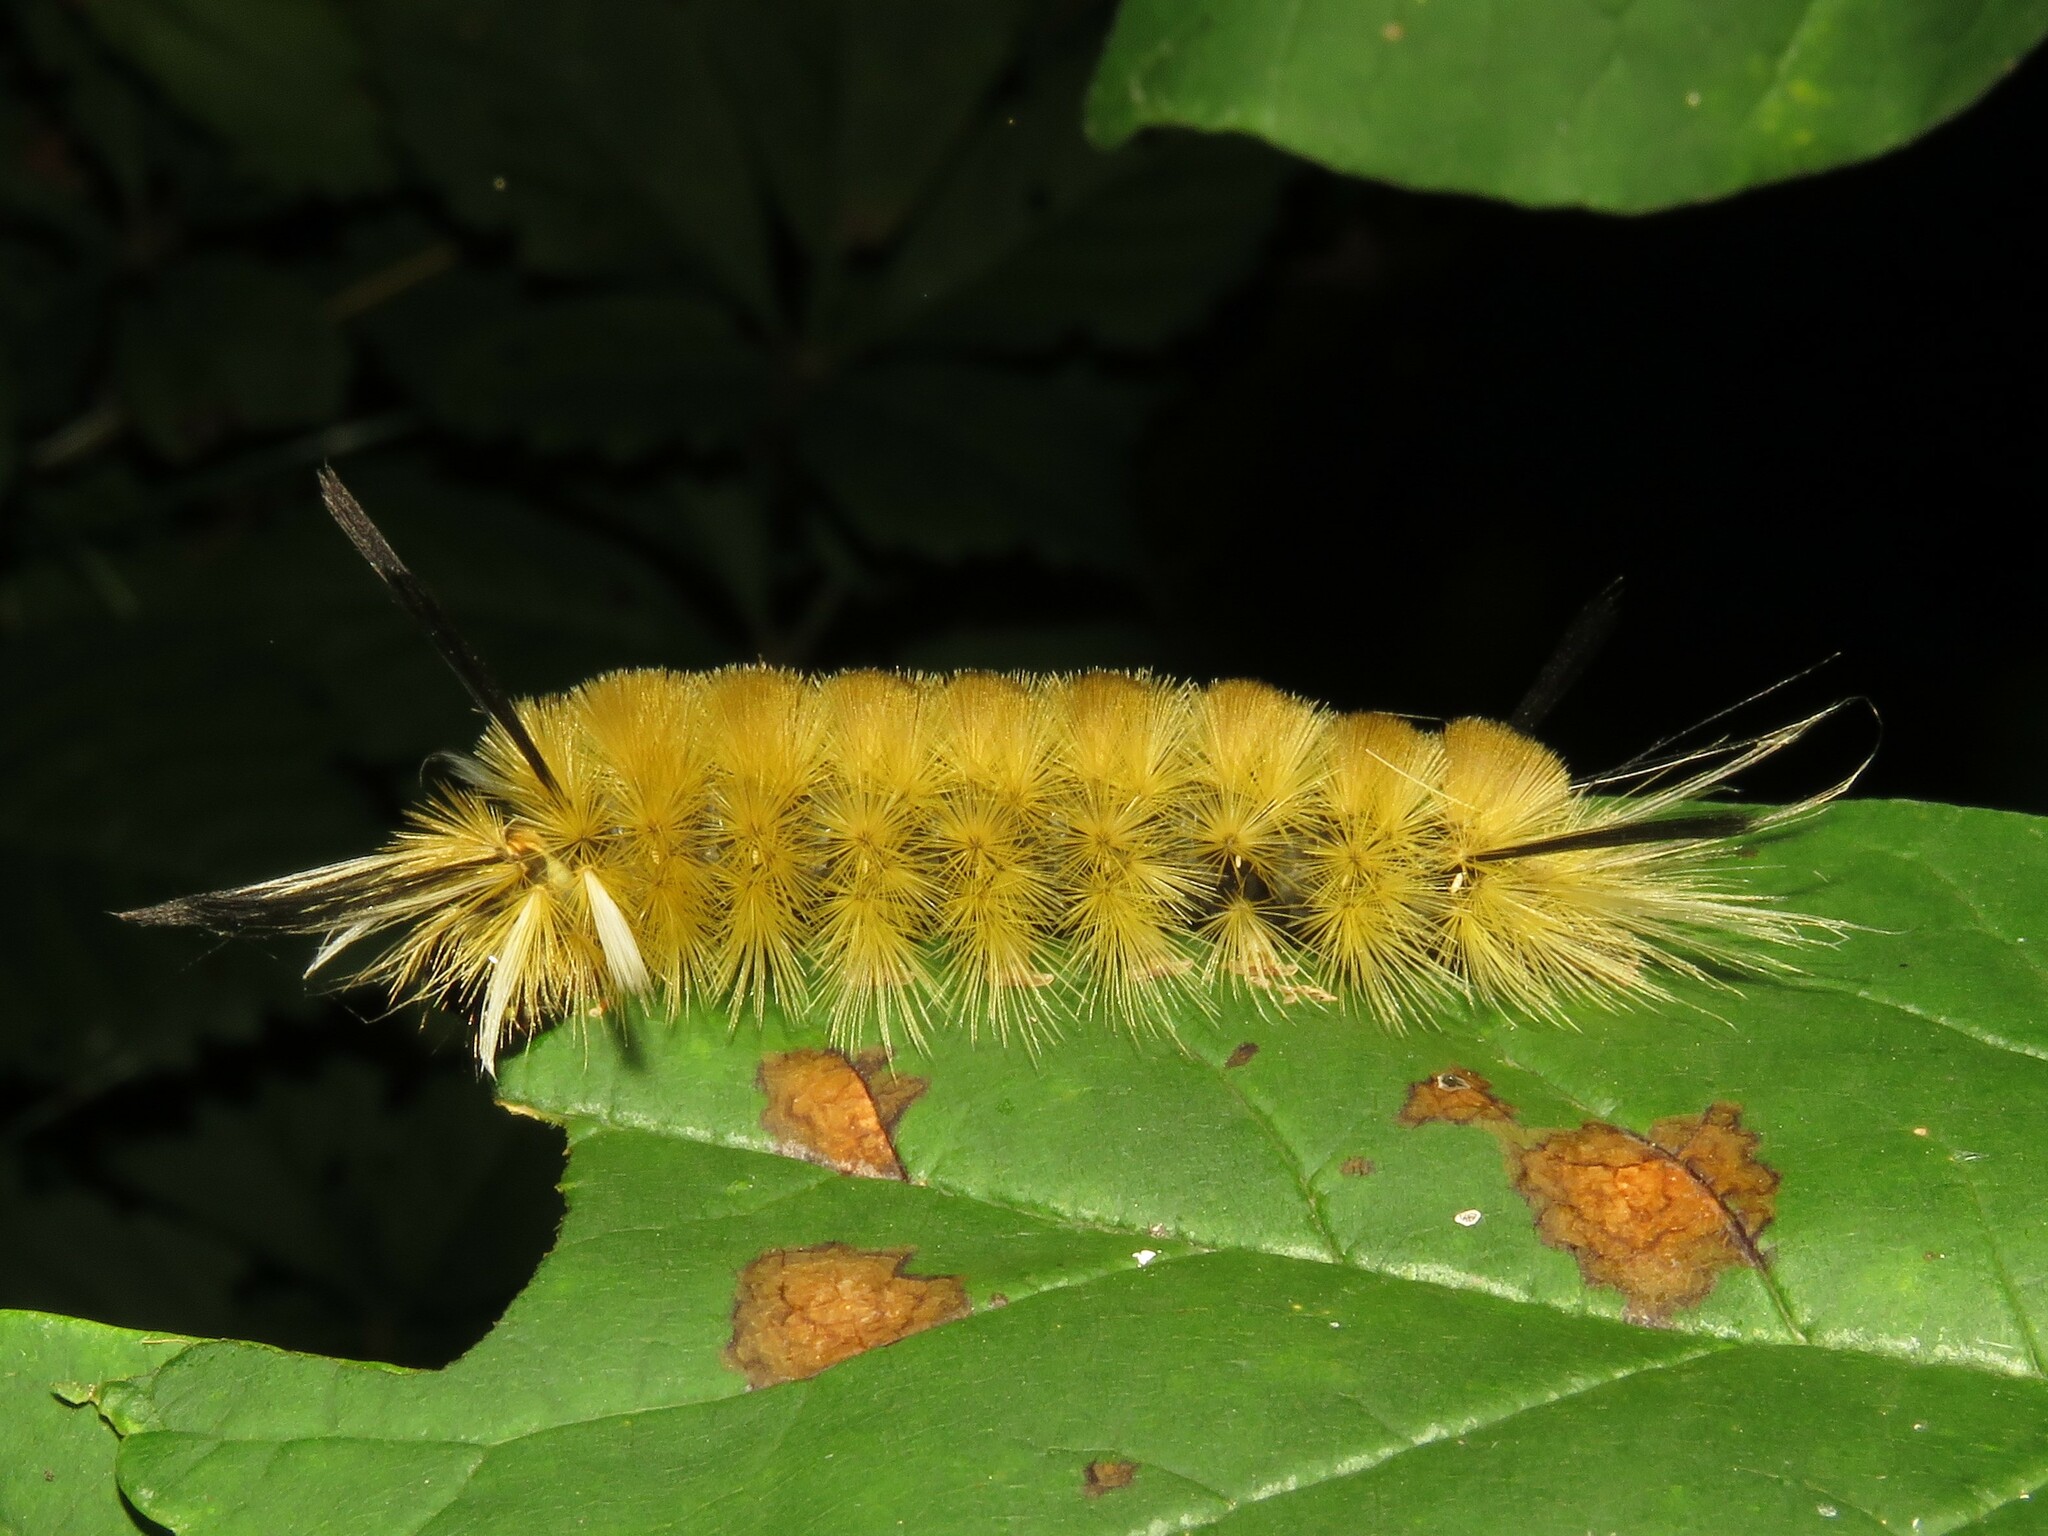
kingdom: Animalia
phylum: Arthropoda
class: Insecta
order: Lepidoptera
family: Erebidae
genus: Halysidota
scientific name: Halysidota tessellaris
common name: Banded tussock moth
